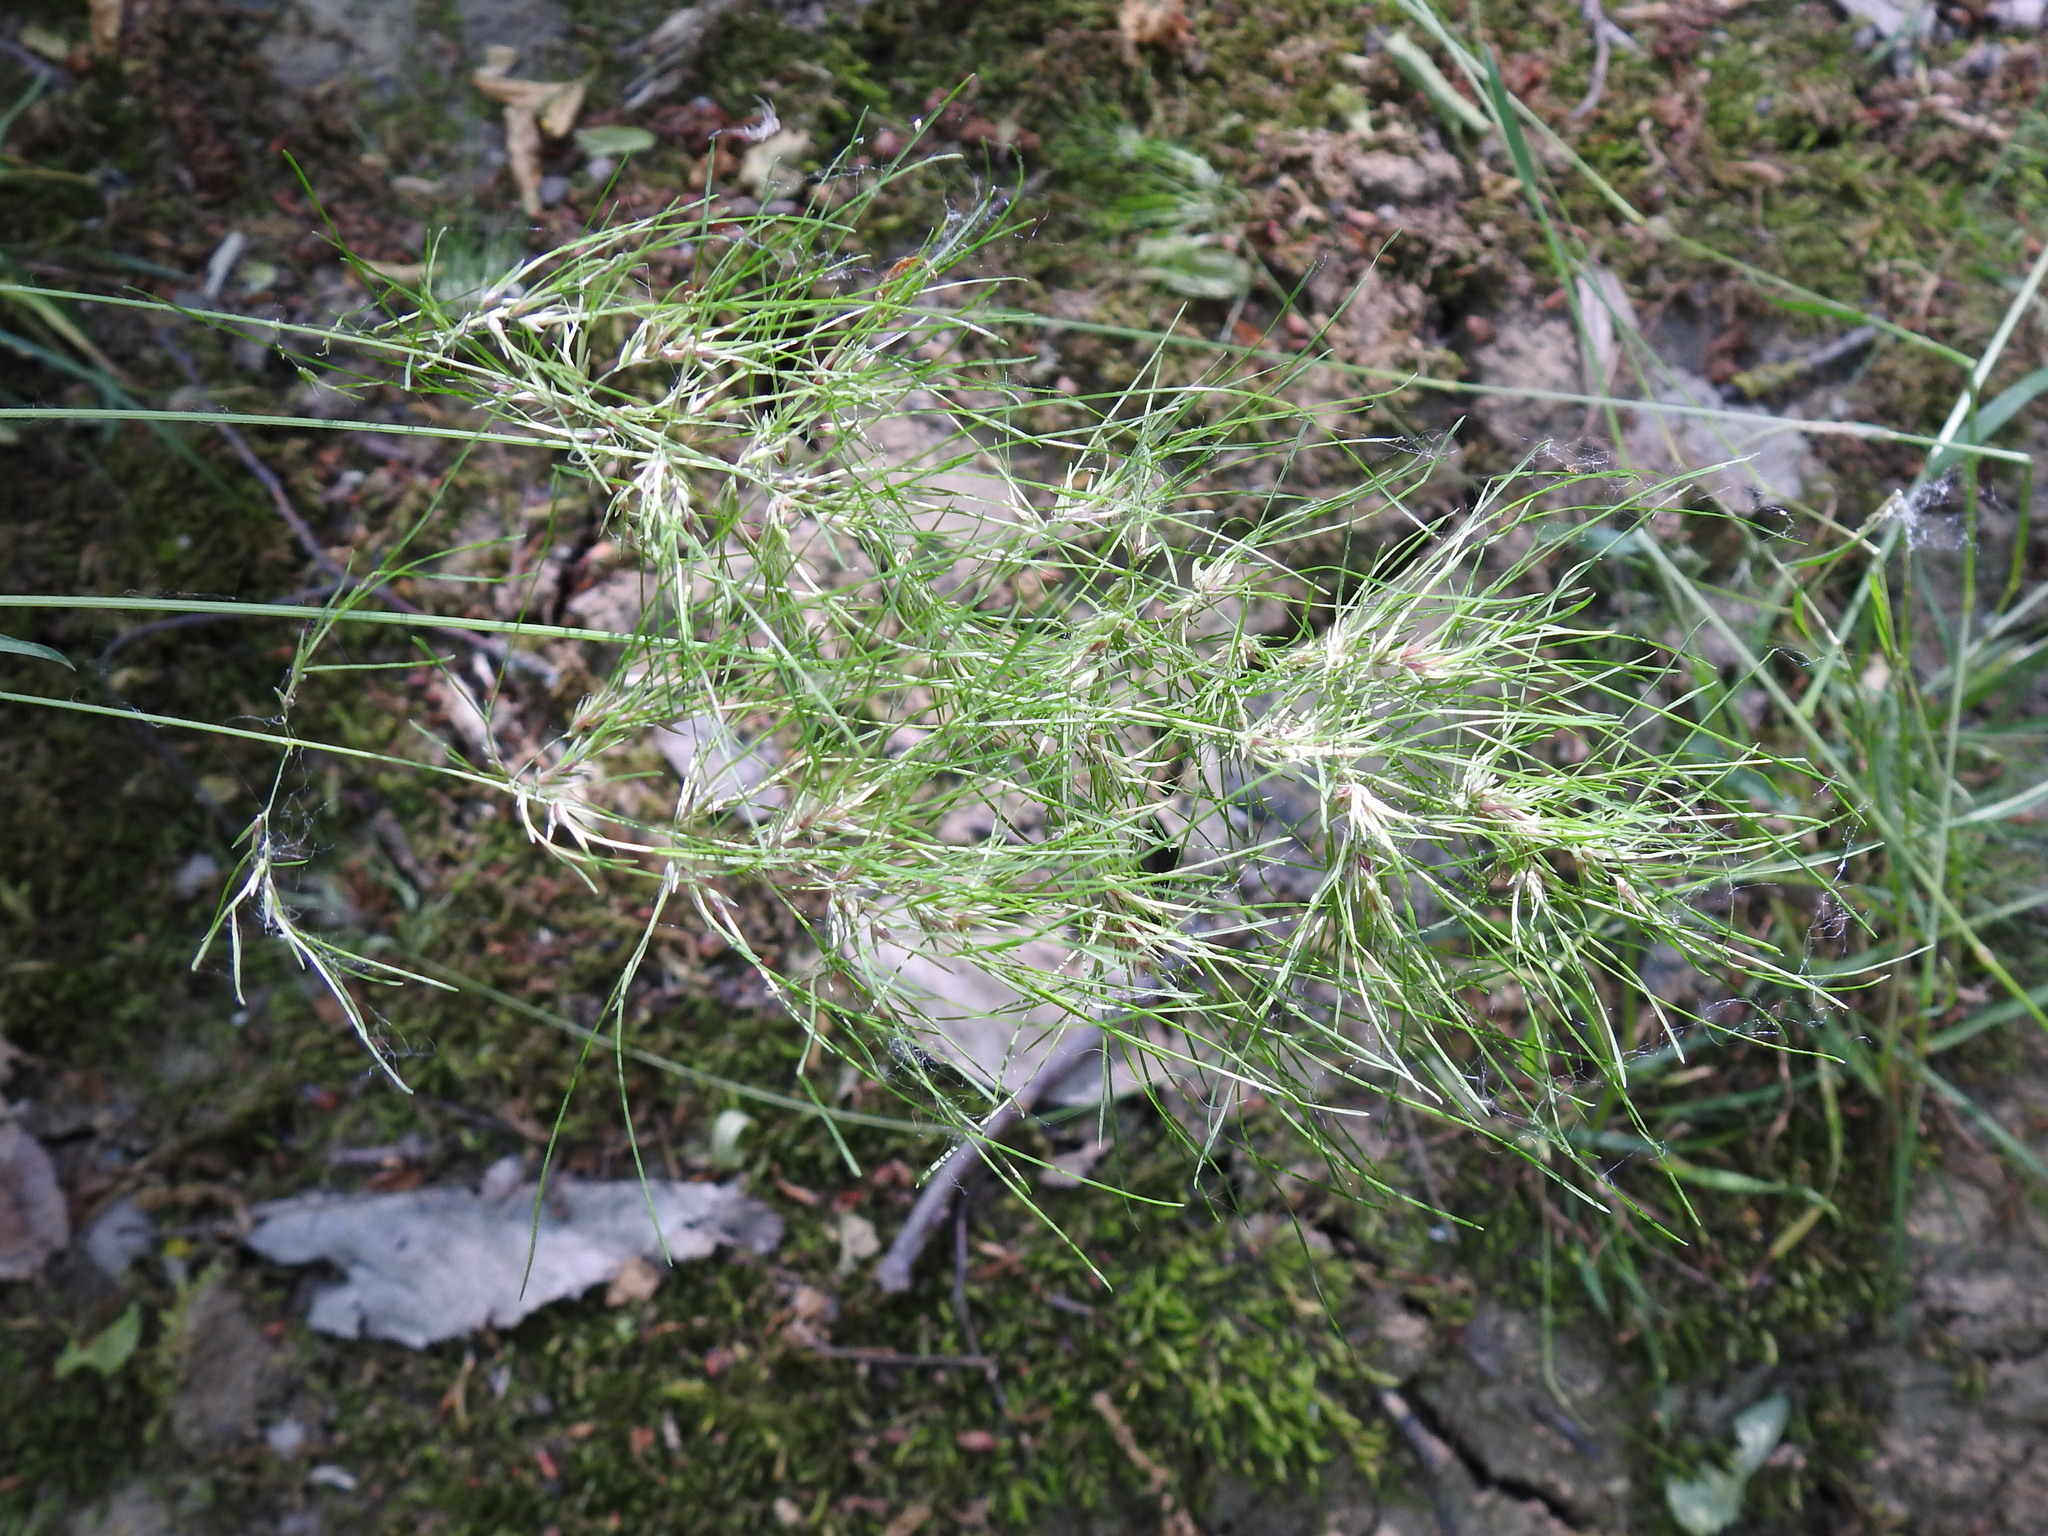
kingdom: Plantae
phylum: Tracheophyta
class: Liliopsida
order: Poales
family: Poaceae
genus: Poa
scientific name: Poa bulbosa
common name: Bulbous bluegrass
